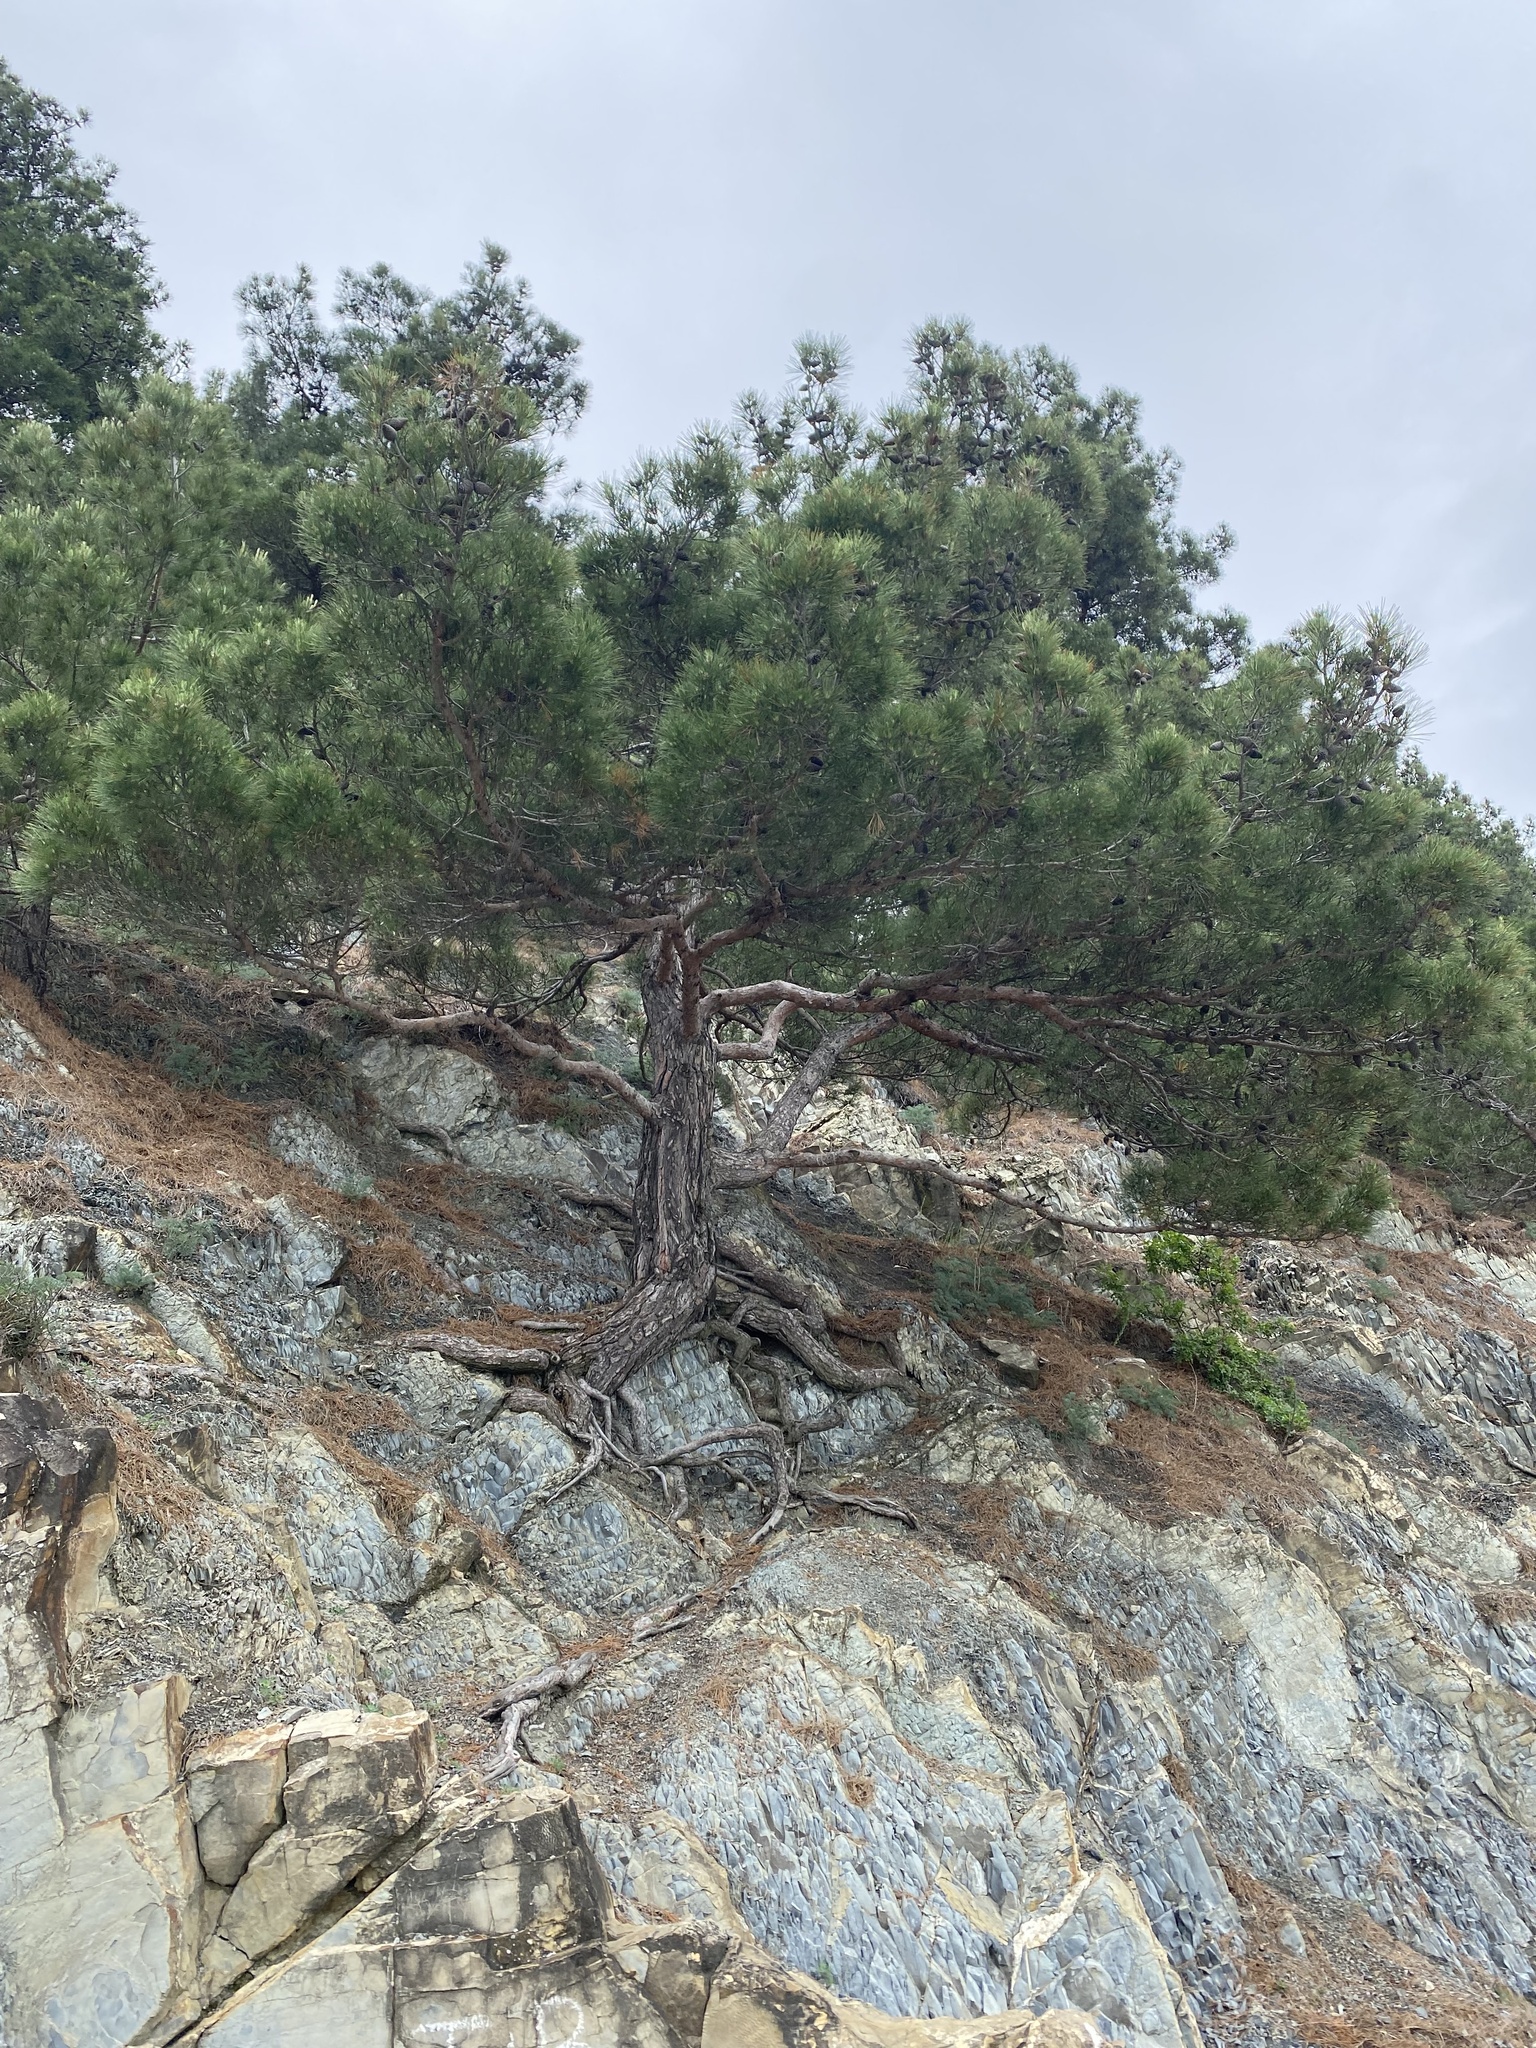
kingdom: Plantae
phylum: Tracheophyta
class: Pinopsida
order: Pinales
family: Pinaceae
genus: Pinus
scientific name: Pinus brutia
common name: Turkish pine
